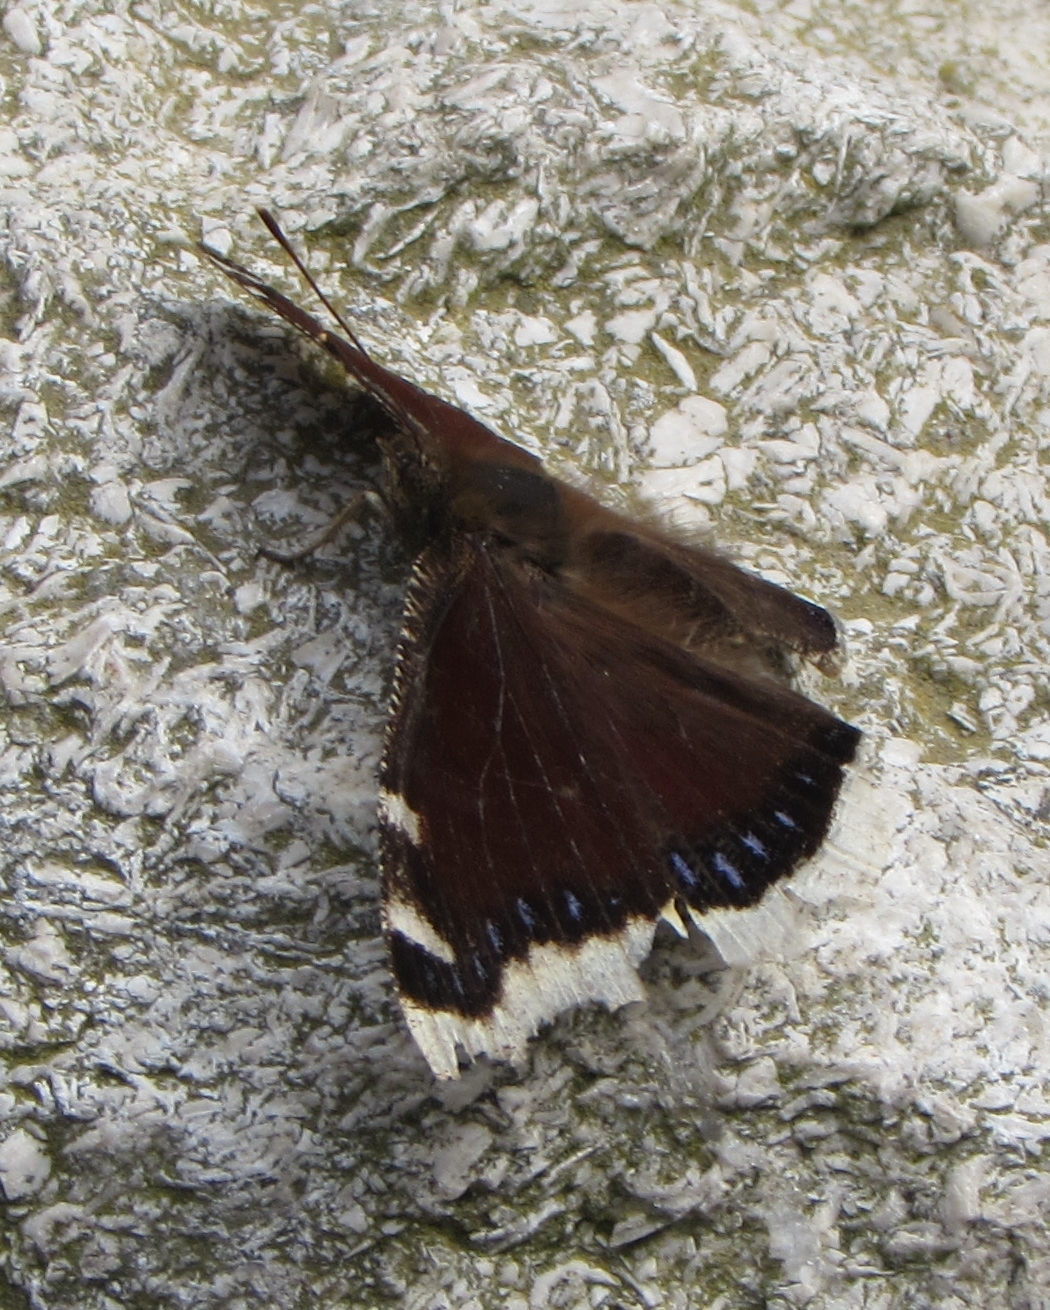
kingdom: Animalia
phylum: Arthropoda
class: Insecta
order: Lepidoptera
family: Nymphalidae
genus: Nymphalis
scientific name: Nymphalis antiopa
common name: Camberwell beauty
